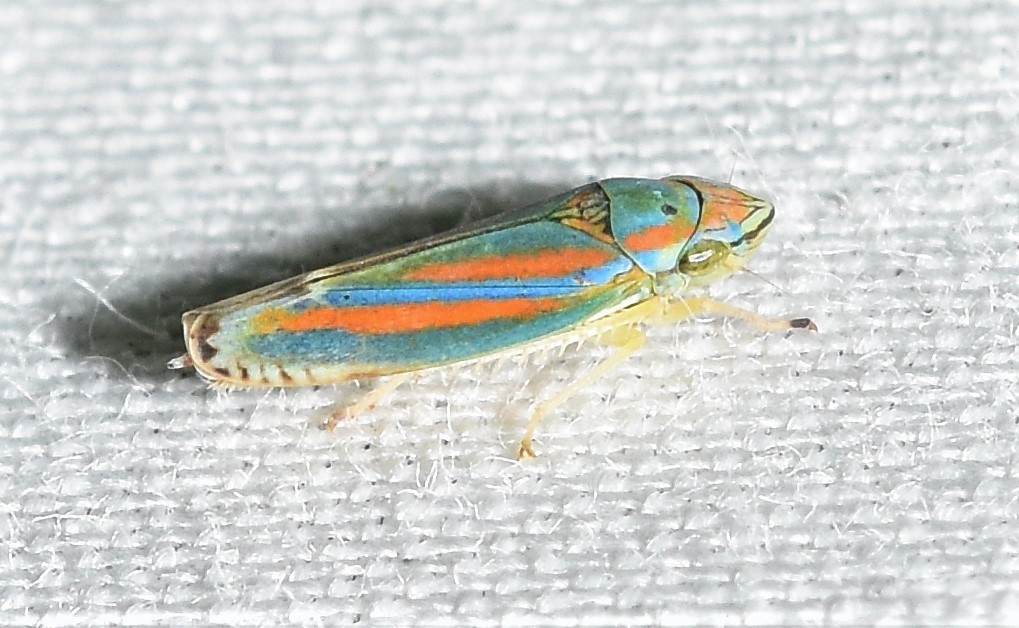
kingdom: Animalia
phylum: Arthropoda
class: Insecta
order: Hemiptera
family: Cicadellidae
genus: Graphocephala
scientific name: Graphocephala versuta
